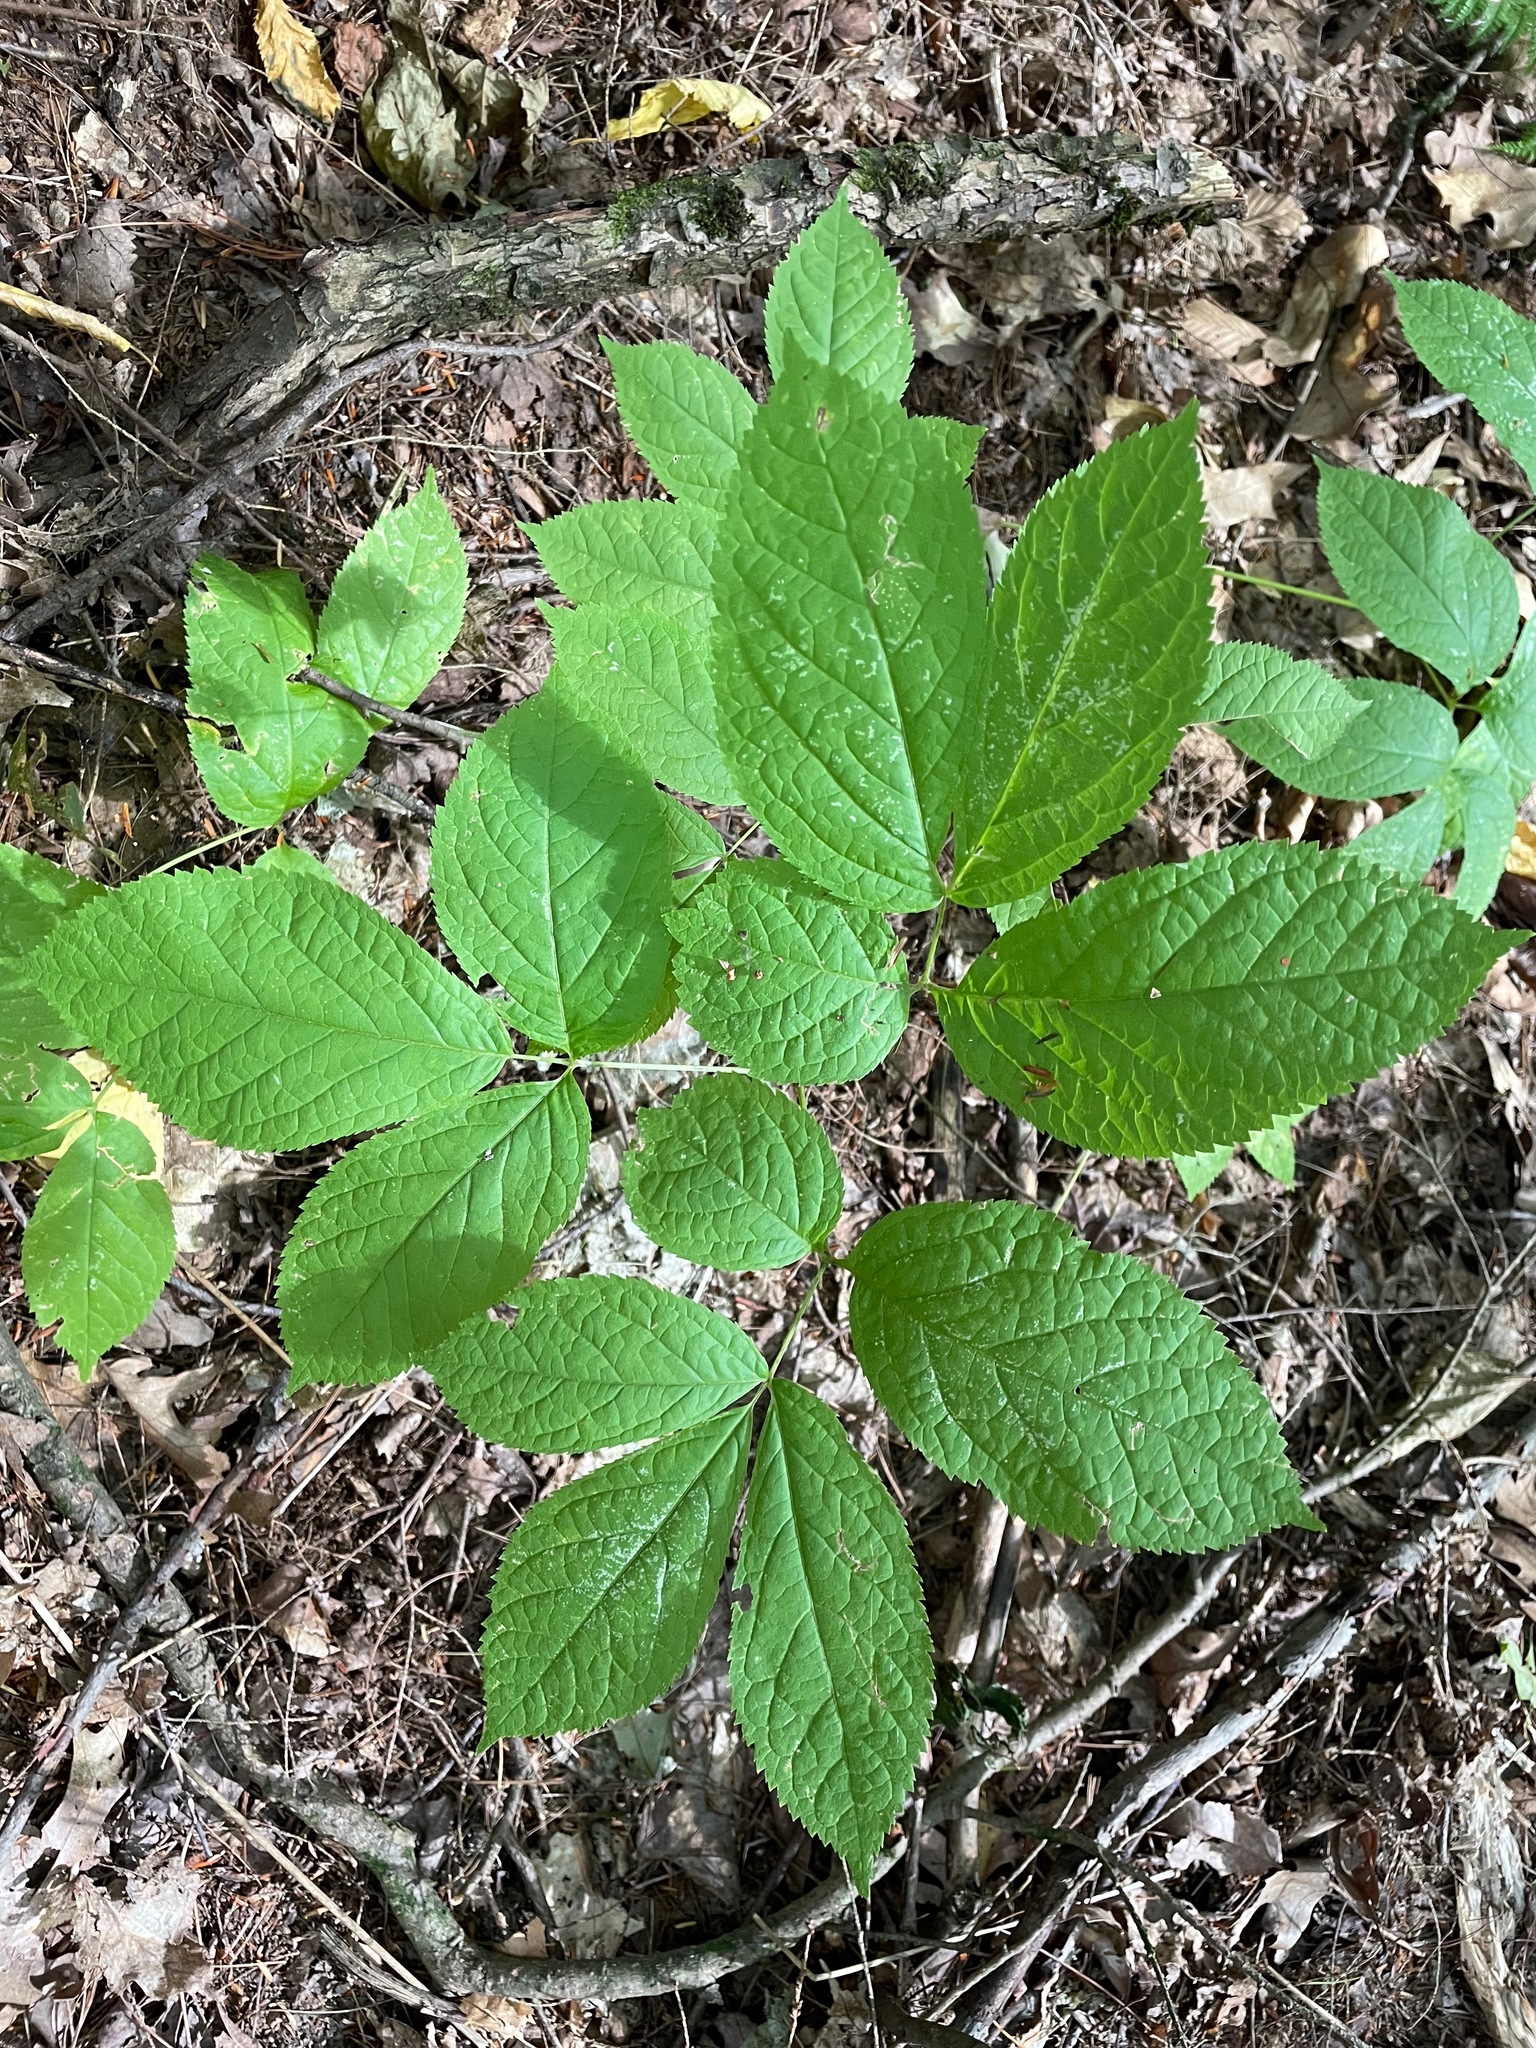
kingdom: Plantae
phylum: Tracheophyta
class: Magnoliopsida
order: Apiales
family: Araliaceae
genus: Aralia
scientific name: Aralia nudicaulis
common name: Wild sarsaparilla
